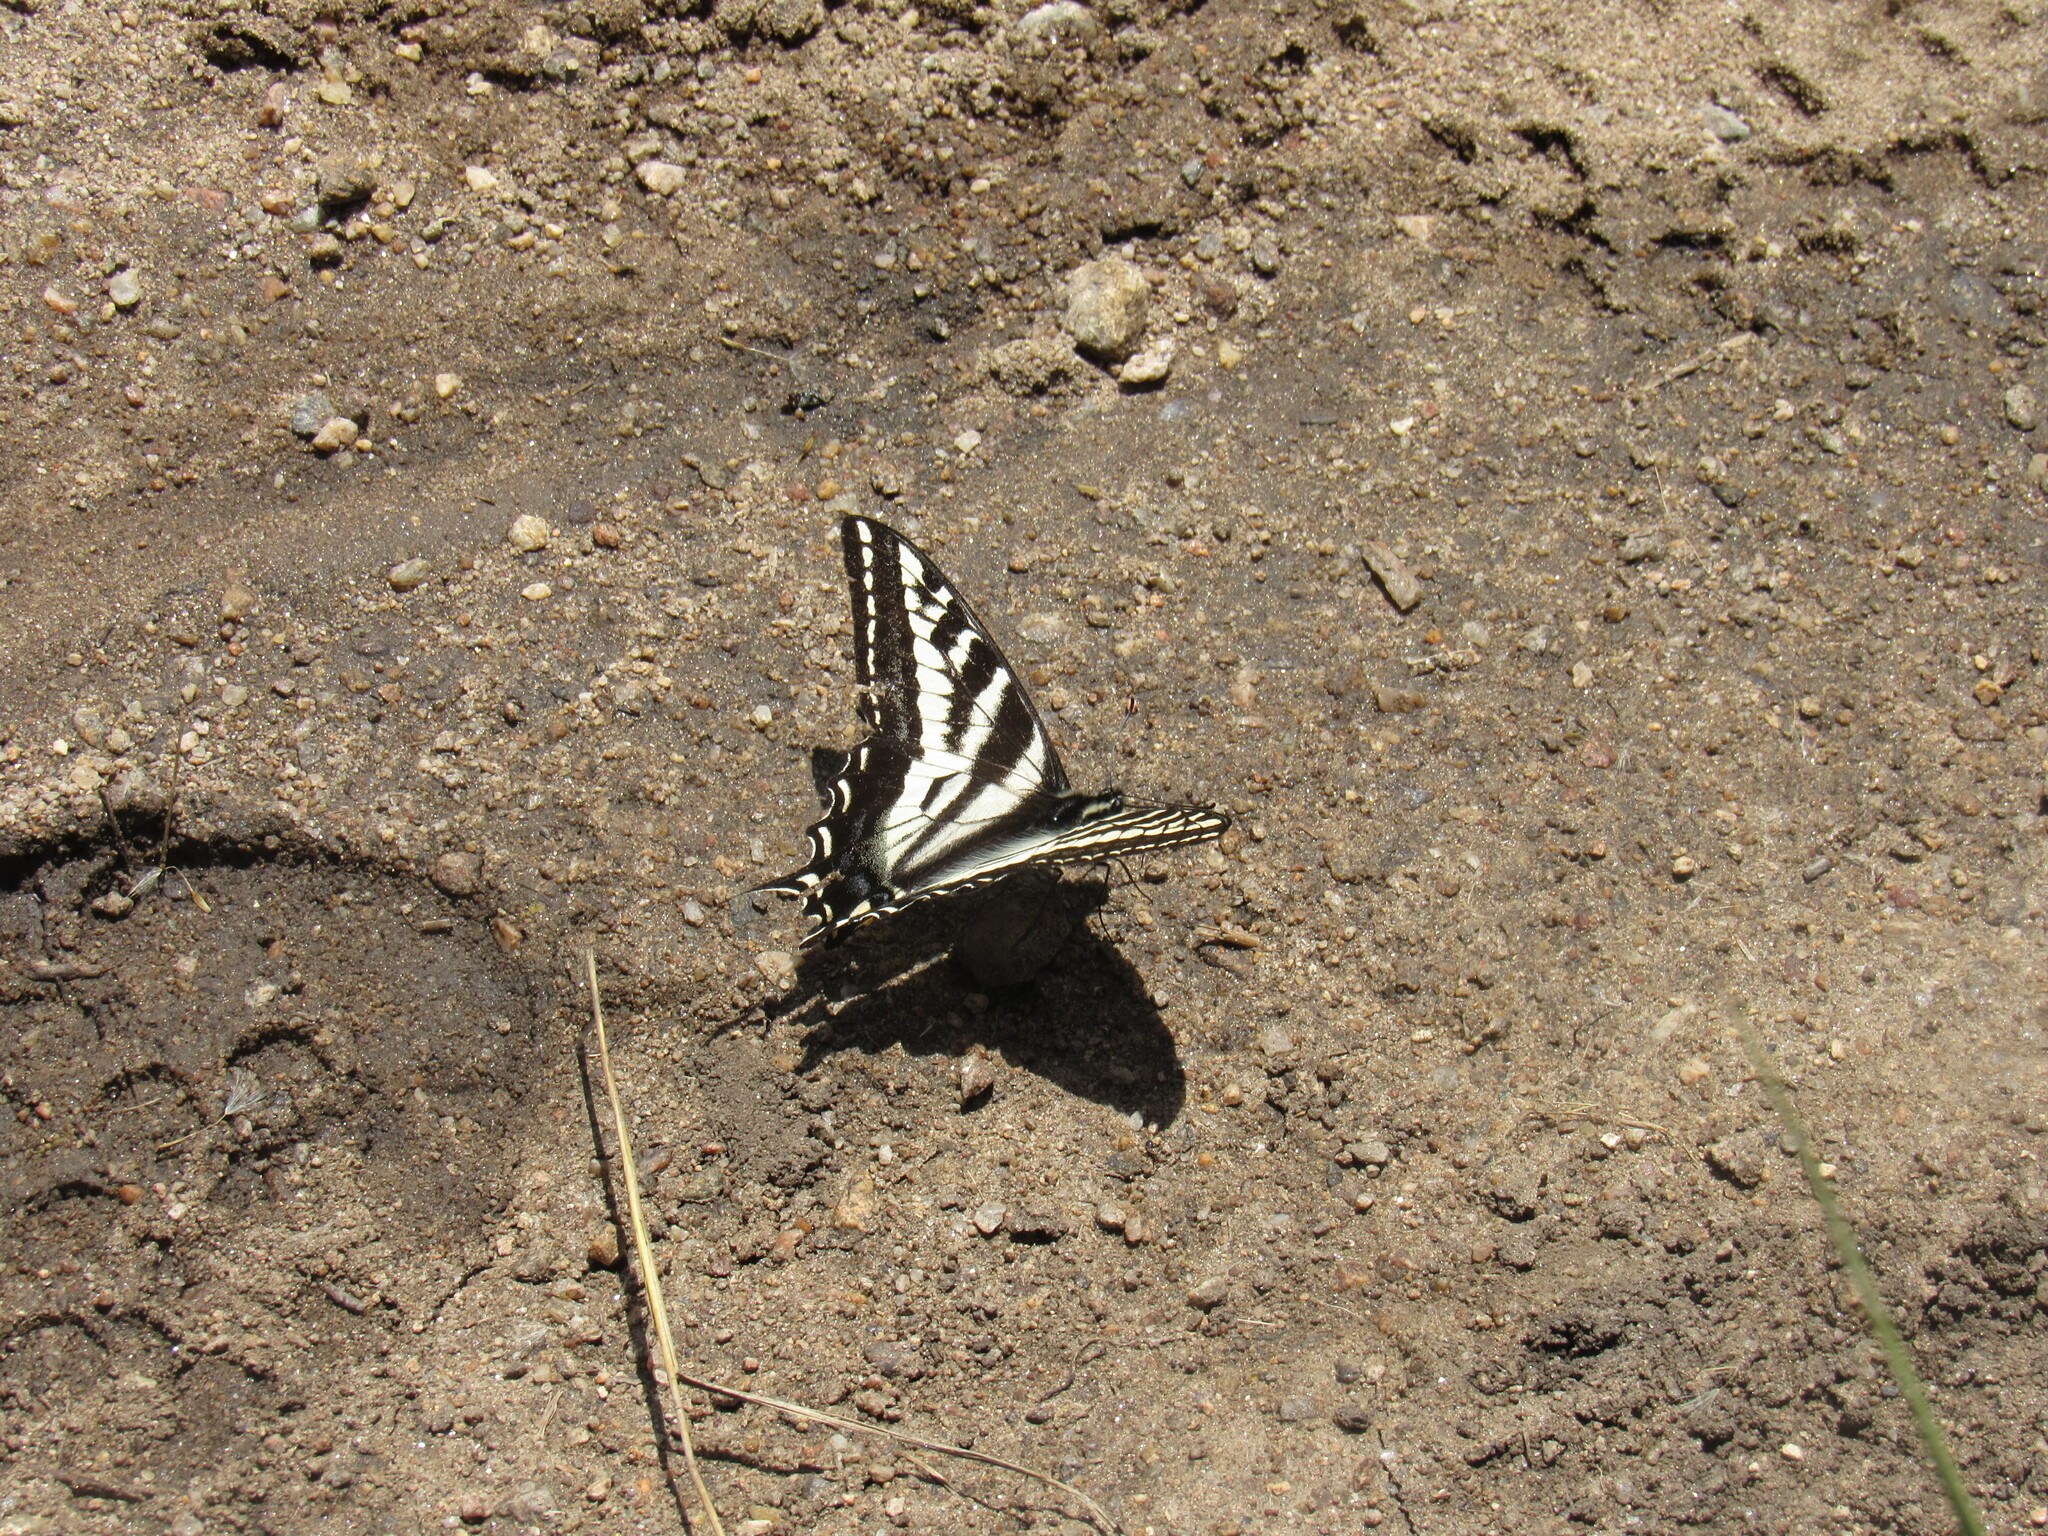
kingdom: Animalia
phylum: Arthropoda
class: Insecta
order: Lepidoptera
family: Papilionidae
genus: Papilio
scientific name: Papilio eurymedon
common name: Pale tiger swallowtail
